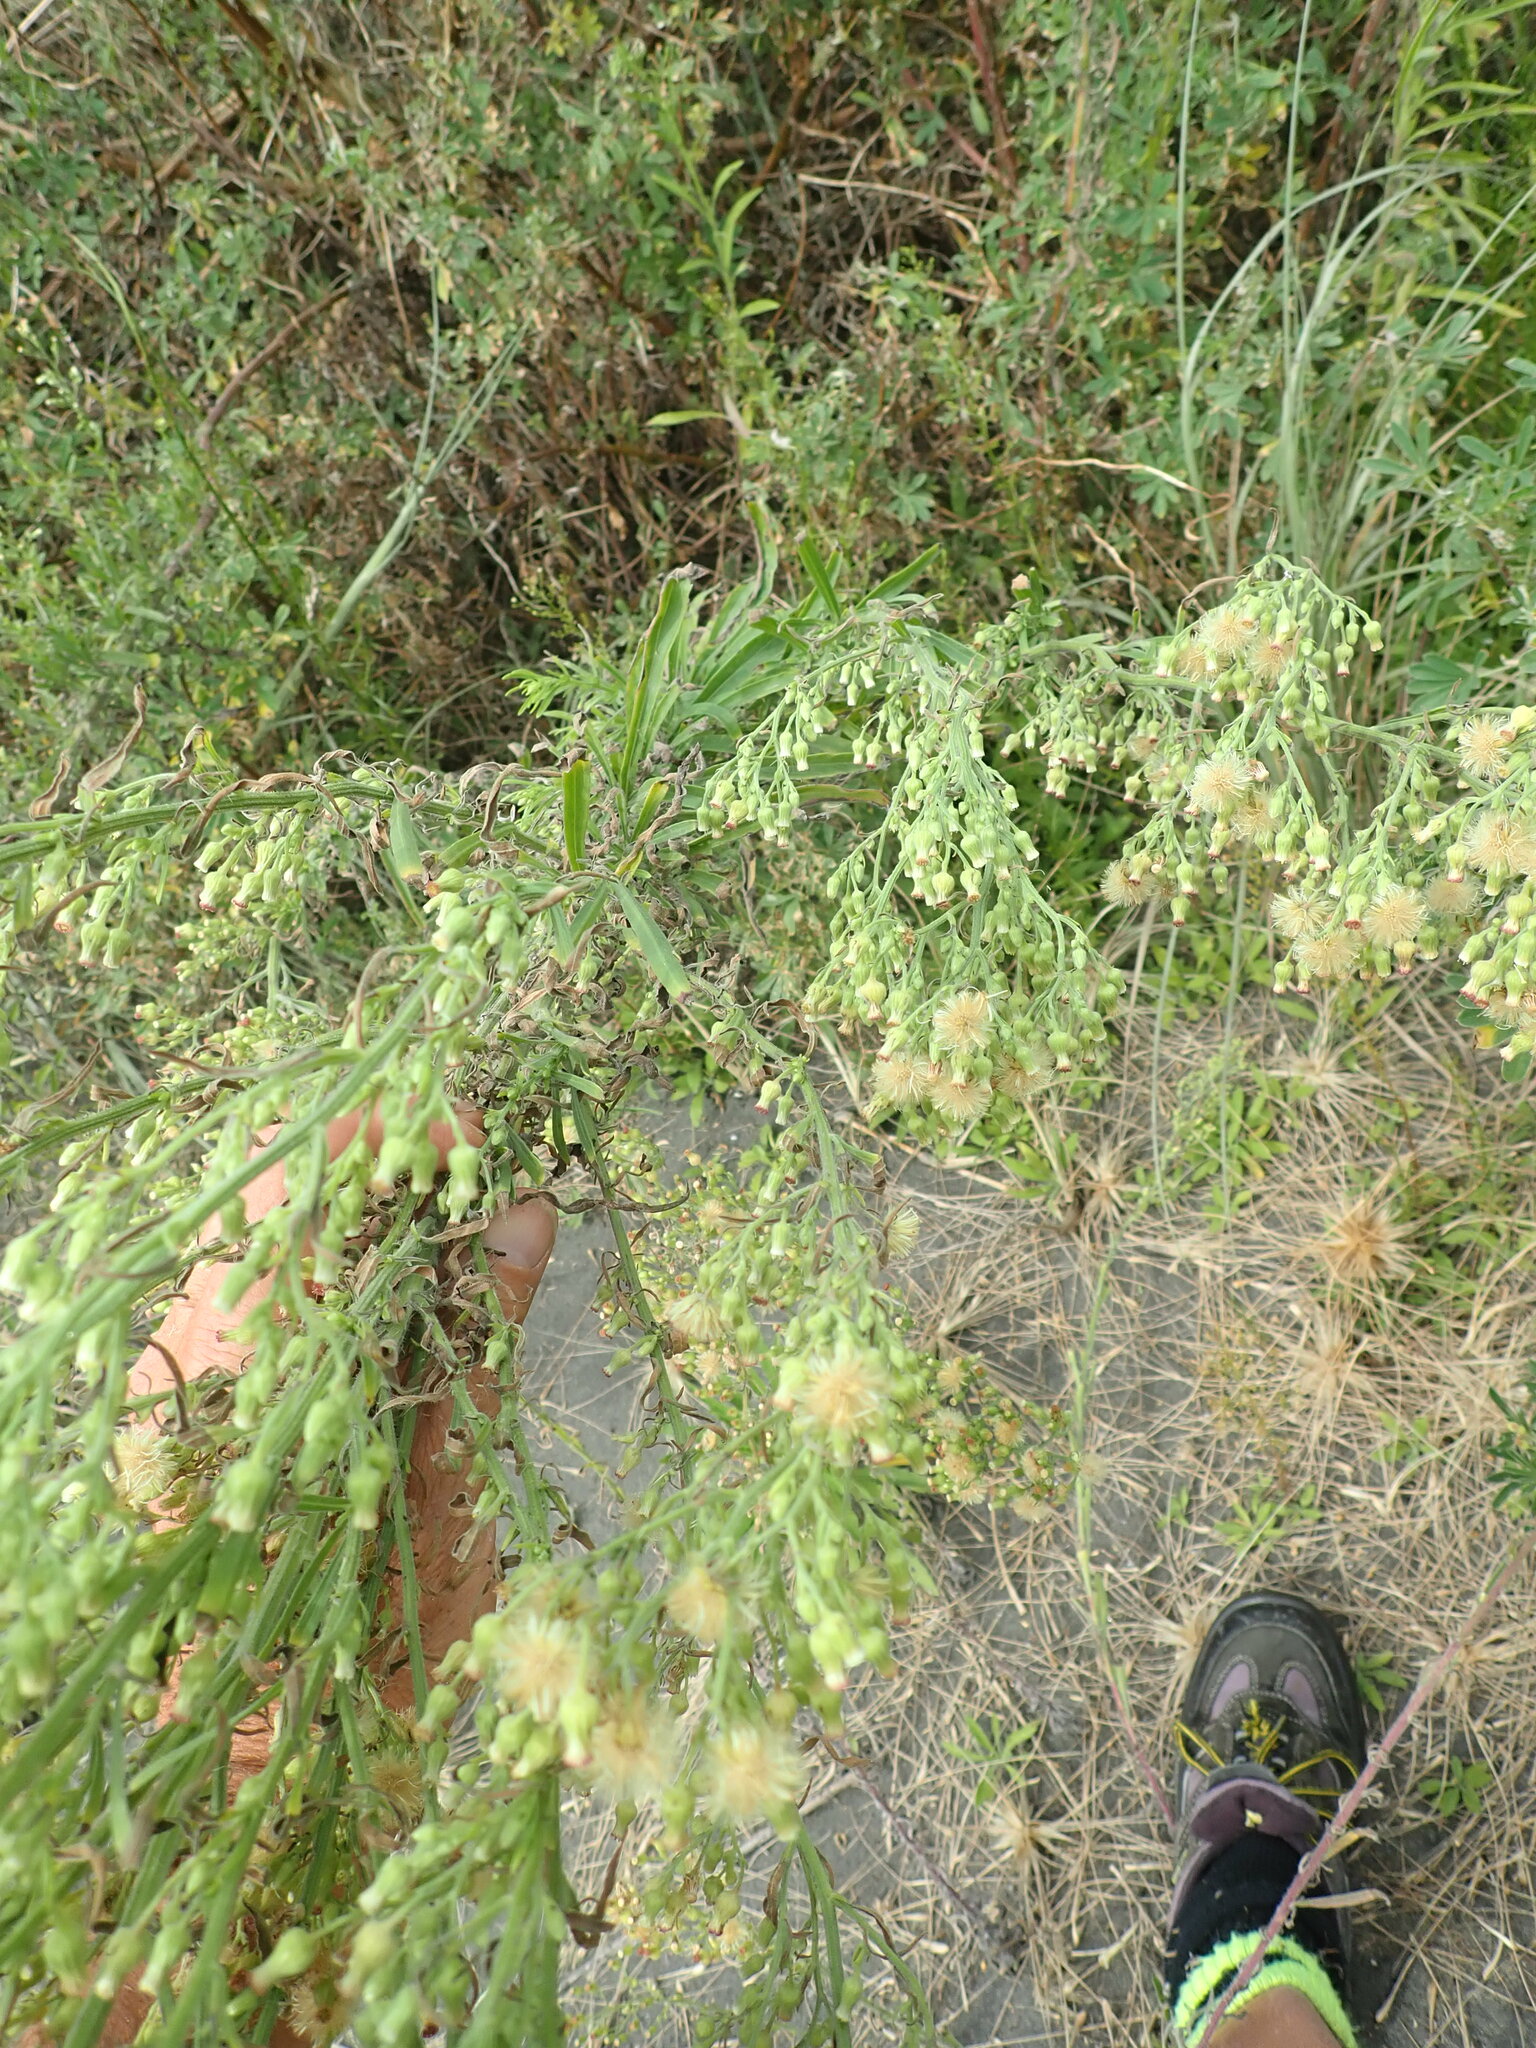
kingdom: Plantae
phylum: Tracheophyta
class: Magnoliopsida
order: Asterales
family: Asteraceae
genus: Erigeron
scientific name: Erigeron sumatrensis
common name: Daisy
